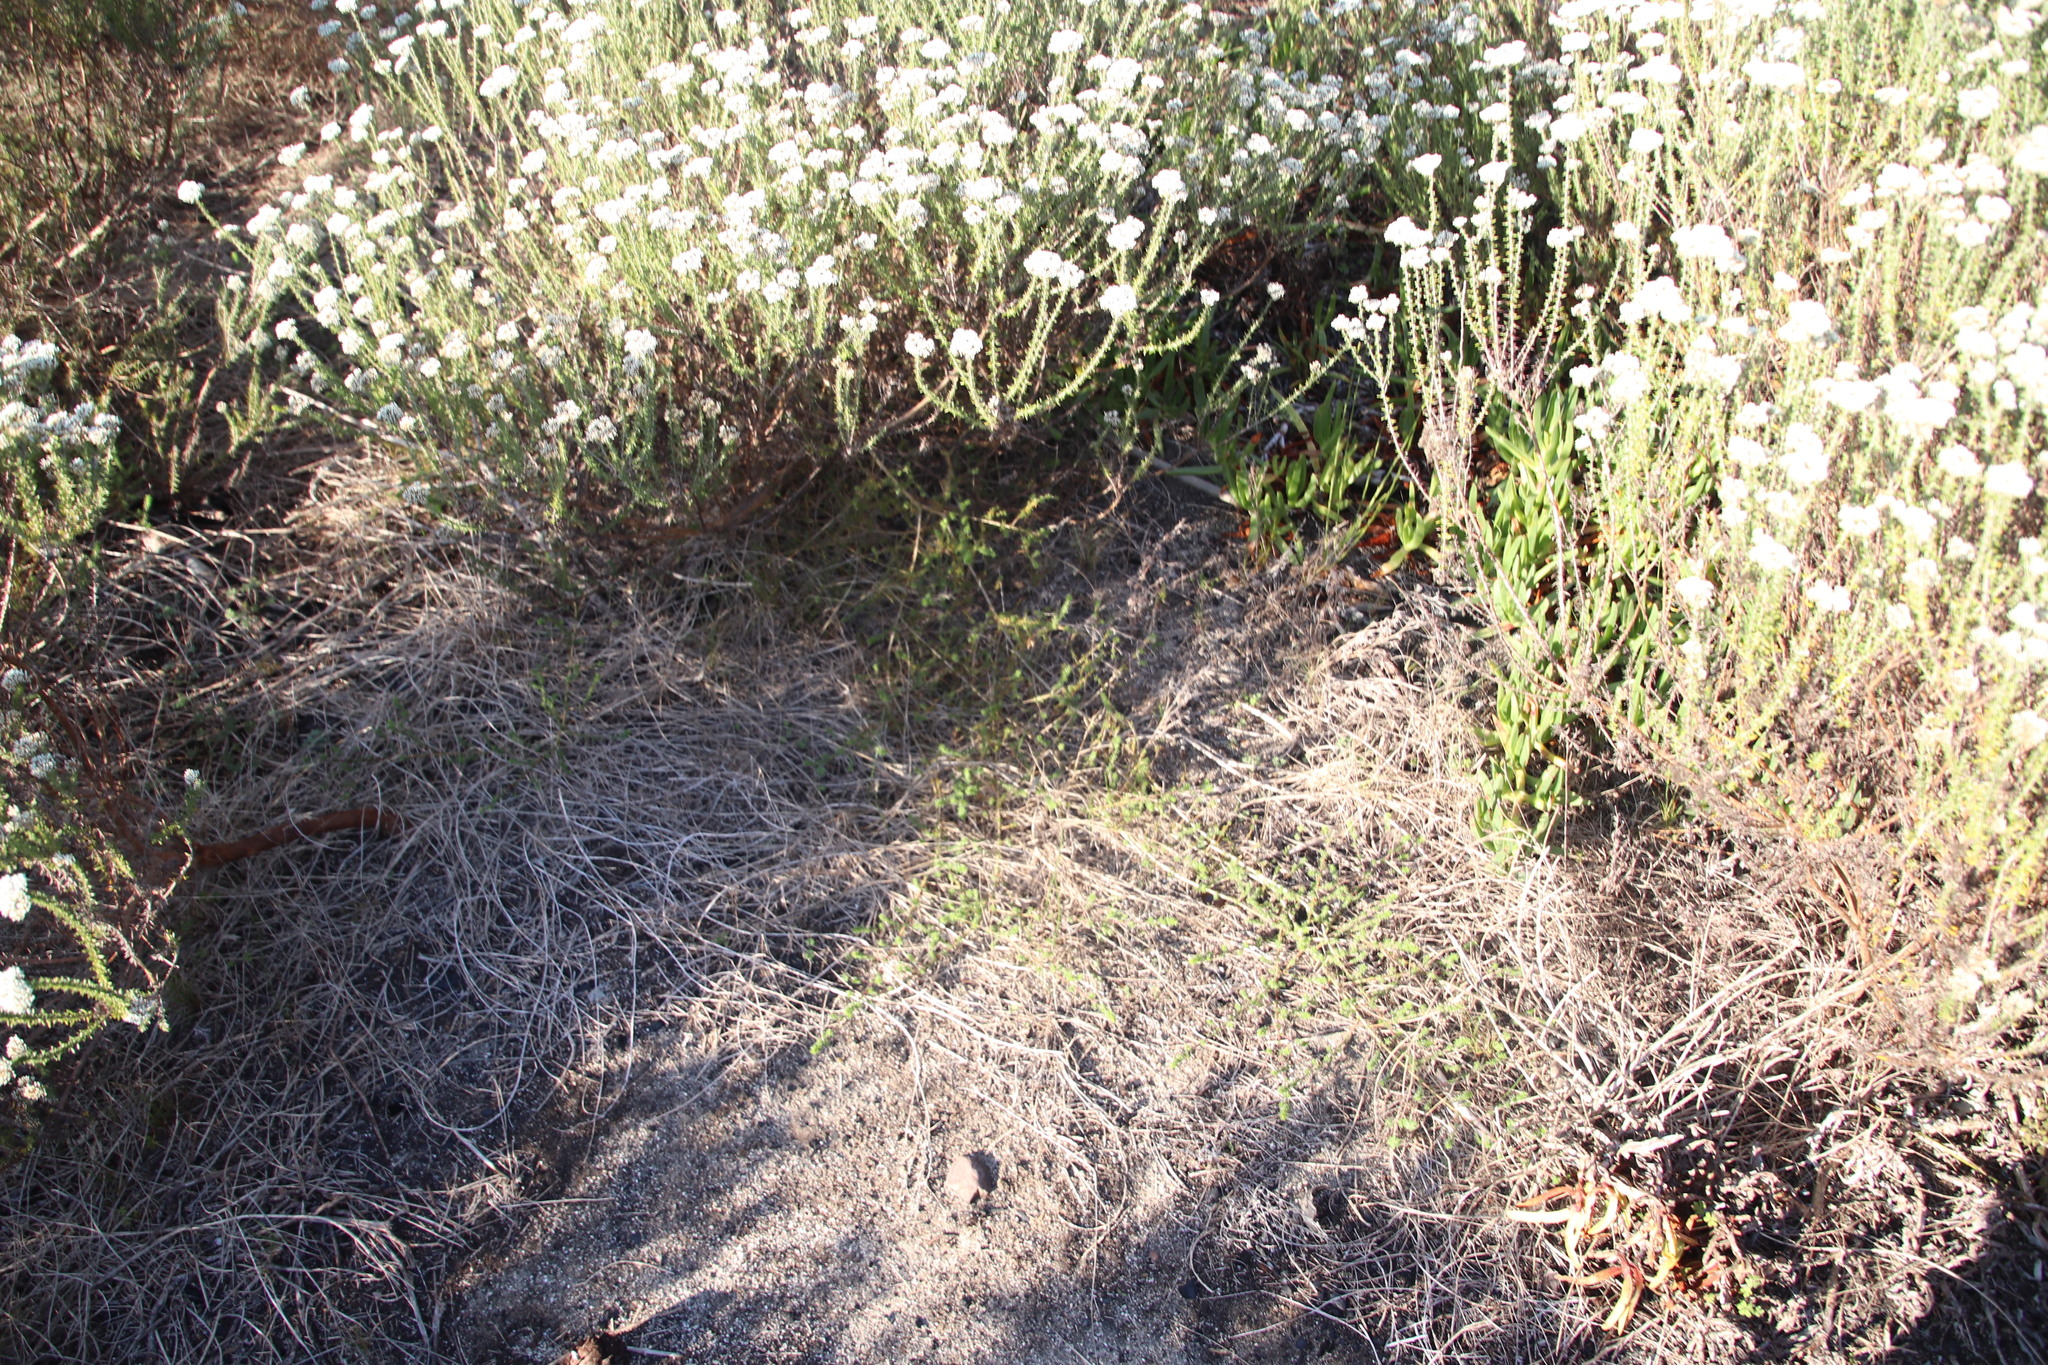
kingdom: Plantae
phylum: Tracheophyta
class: Magnoliopsida
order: Fabales
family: Fabaceae
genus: Aspalathus
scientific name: Aspalathus retroflexa
